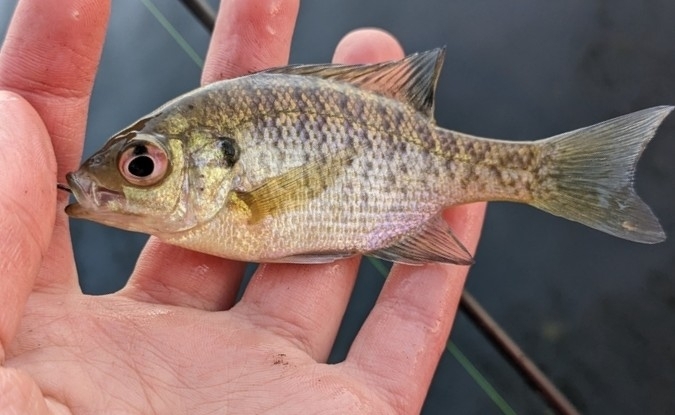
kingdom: Animalia
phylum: Chordata
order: Perciformes
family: Centrarchidae
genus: Lepomis
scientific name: Lepomis macrochirus
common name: Bluegill
